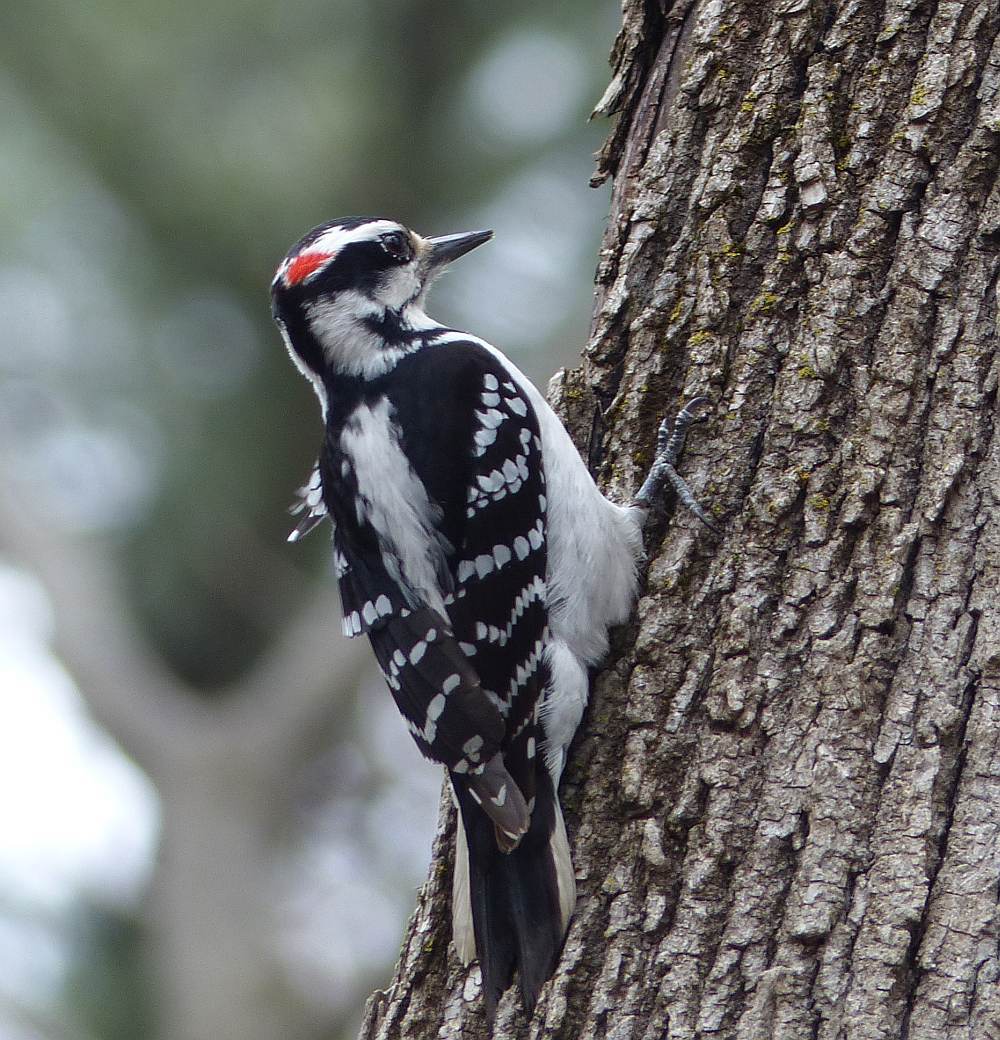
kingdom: Animalia
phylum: Chordata
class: Aves
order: Piciformes
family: Picidae
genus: Leuconotopicus
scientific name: Leuconotopicus villosus
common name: Hairy woodpecker
